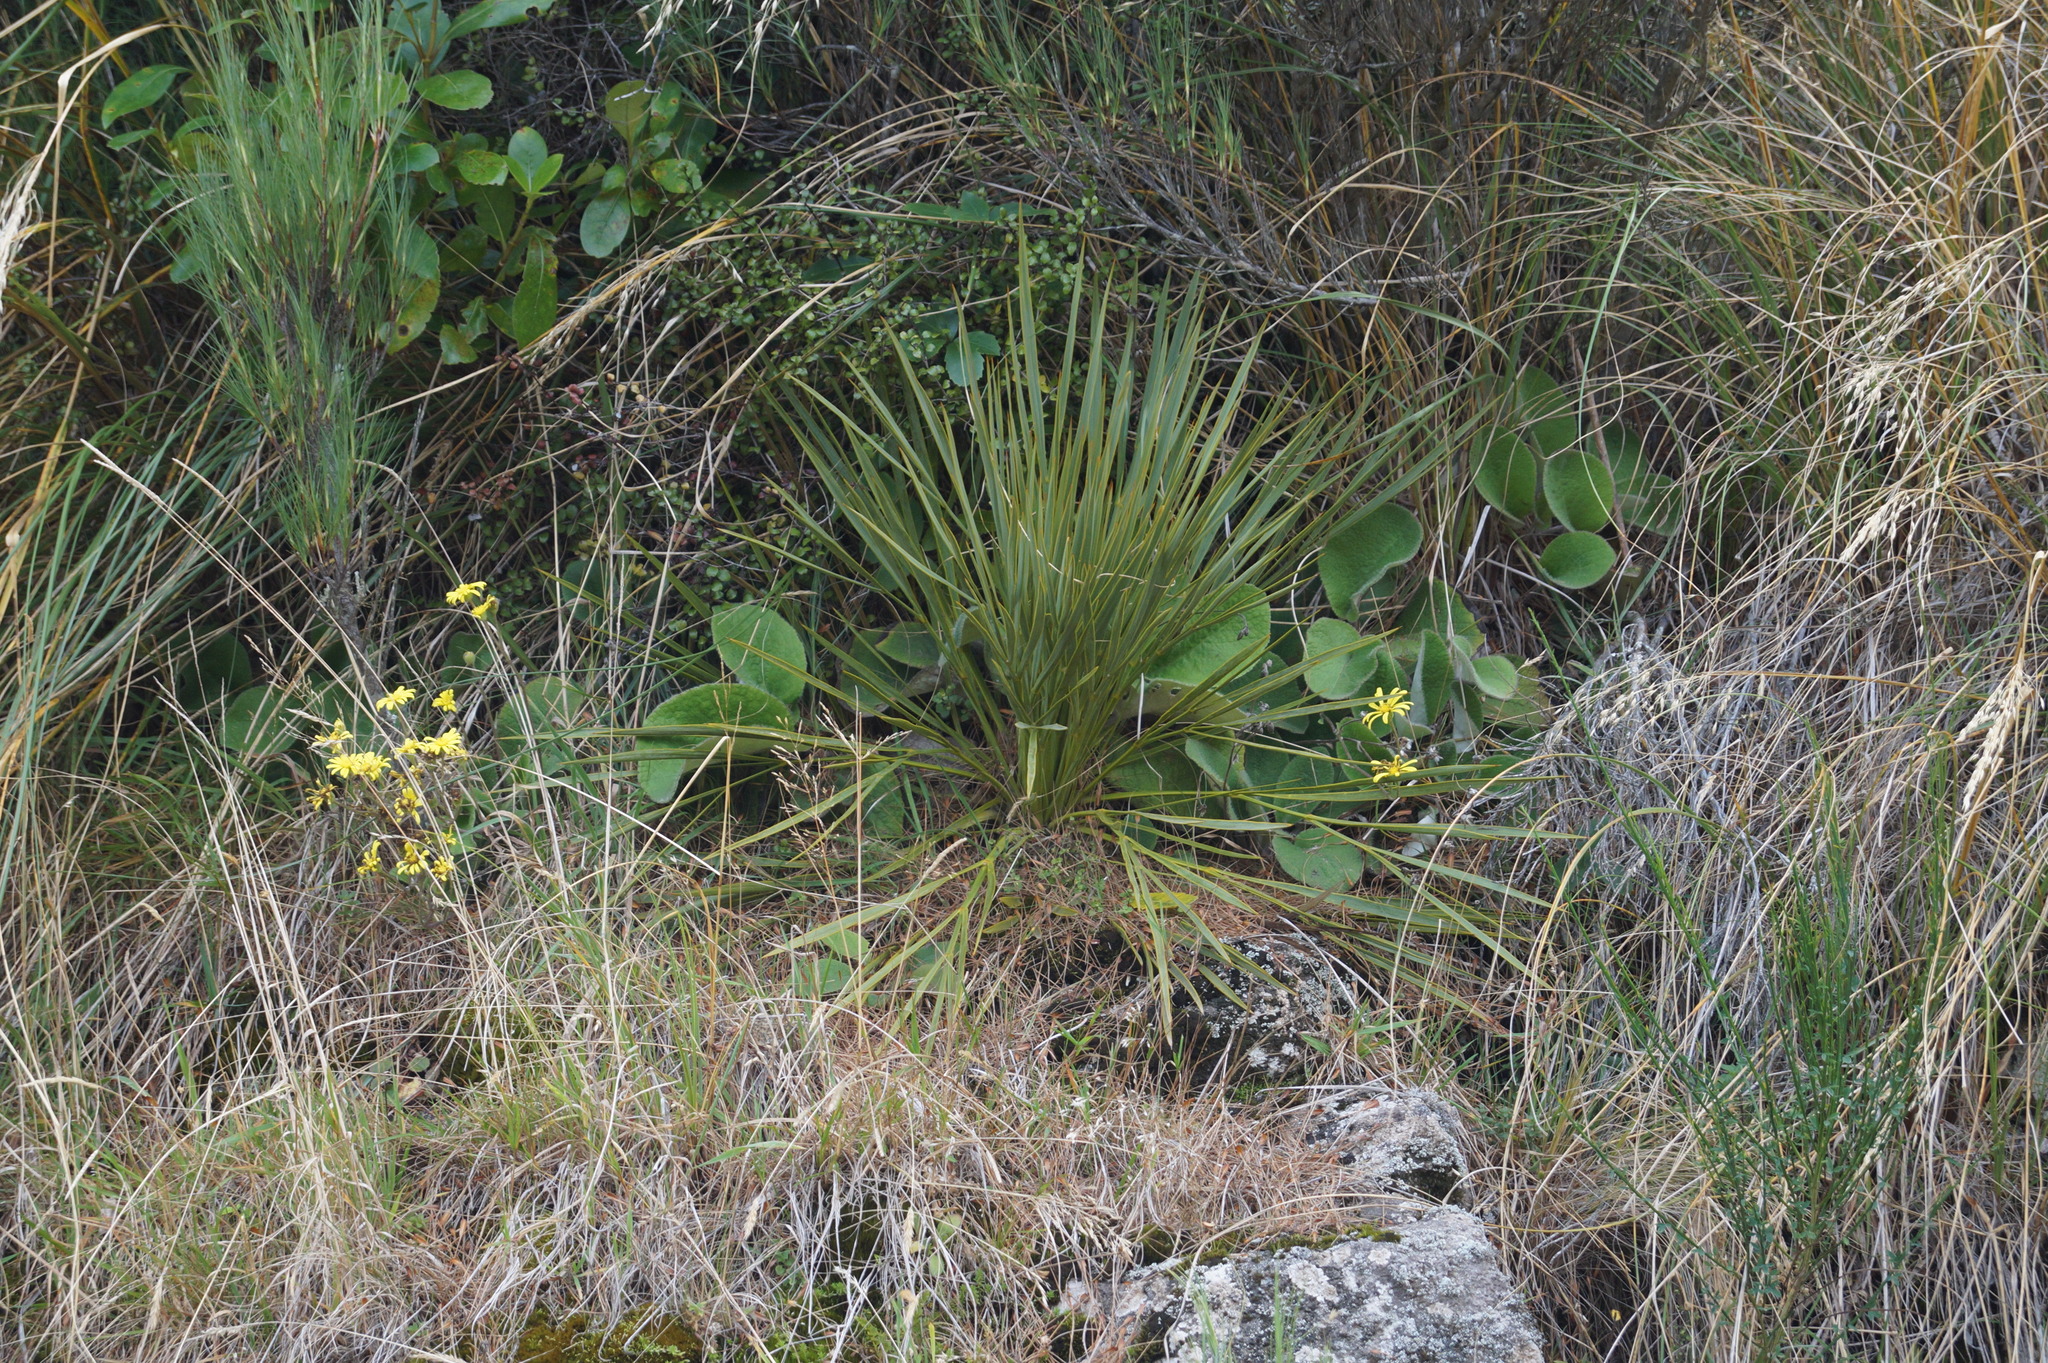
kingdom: Plantae
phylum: Tracheophyta
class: Magnoliopsida
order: Apiales
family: Apiaceae
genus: Aciphylla
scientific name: Aciphylla aurea
